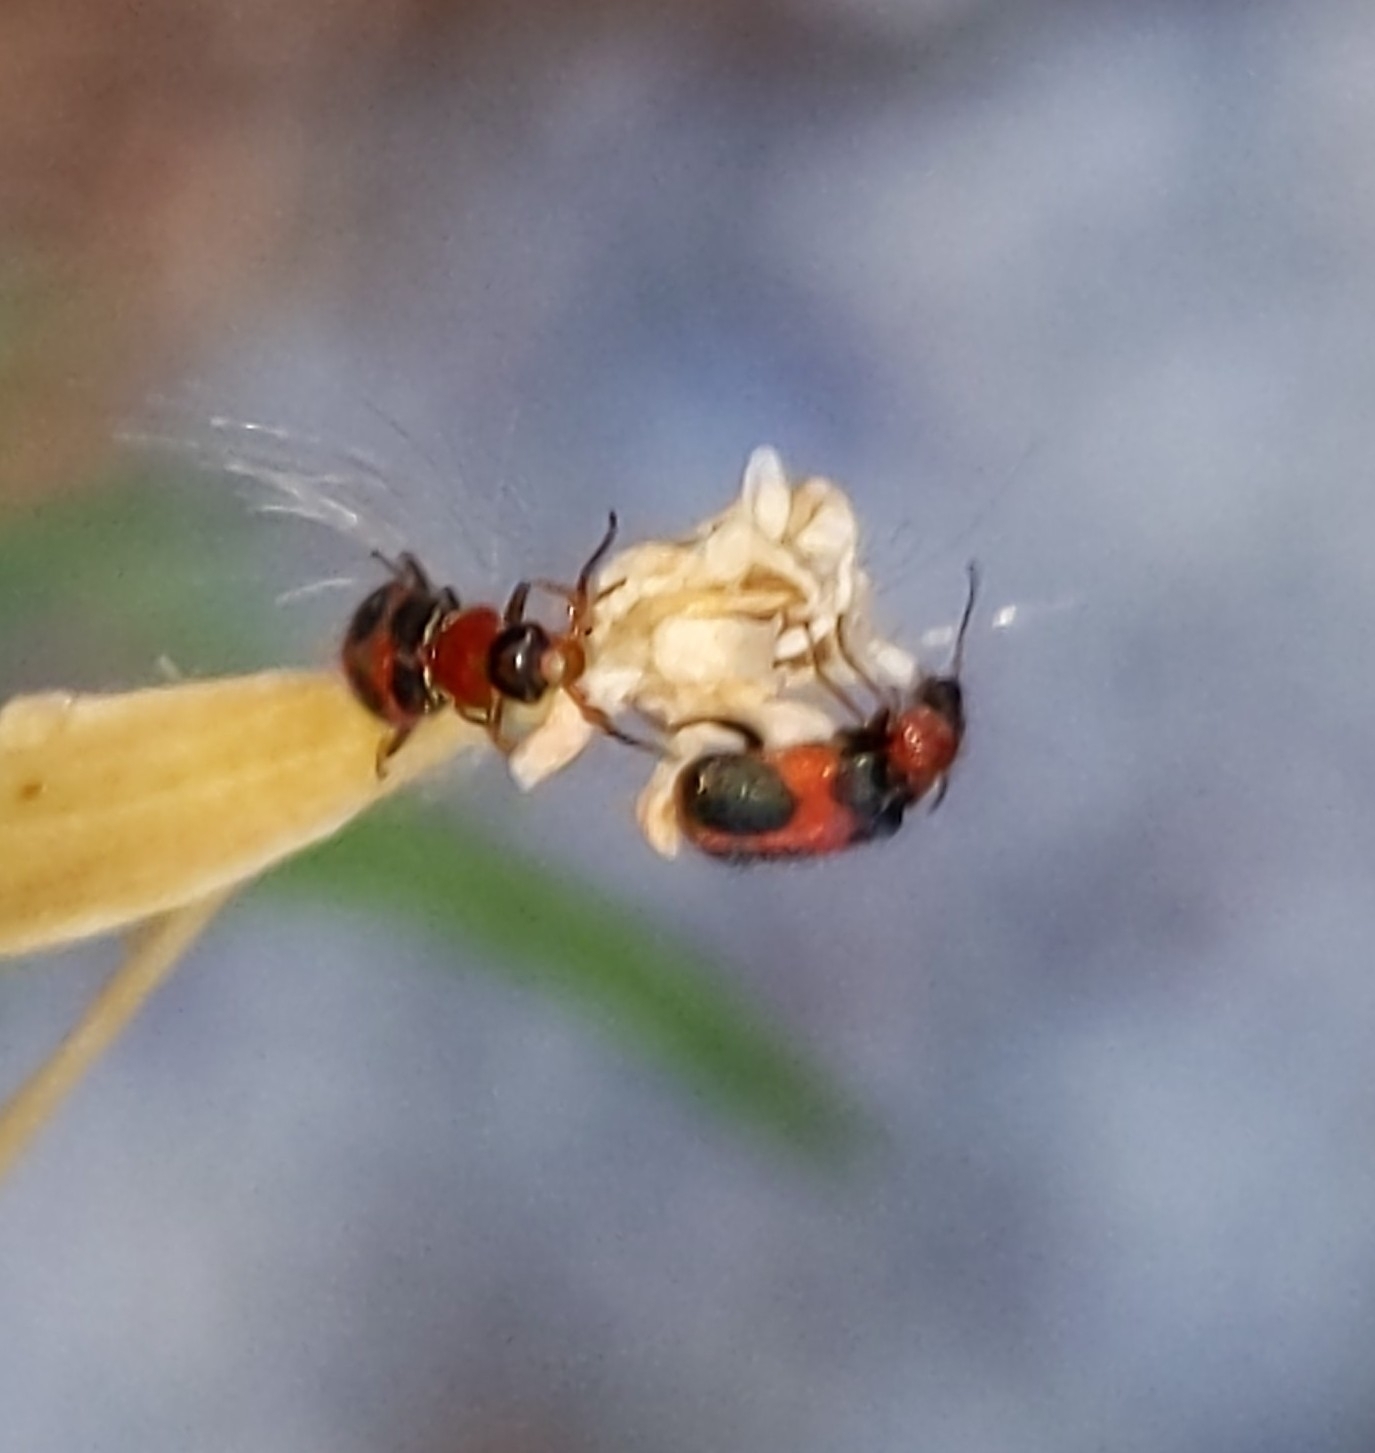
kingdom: Animalia
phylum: Arthropoda
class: Insecta
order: Coleoptera
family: Melyridae
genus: Collops
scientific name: Collops quadrimaculatus
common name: Four-spotted collops
